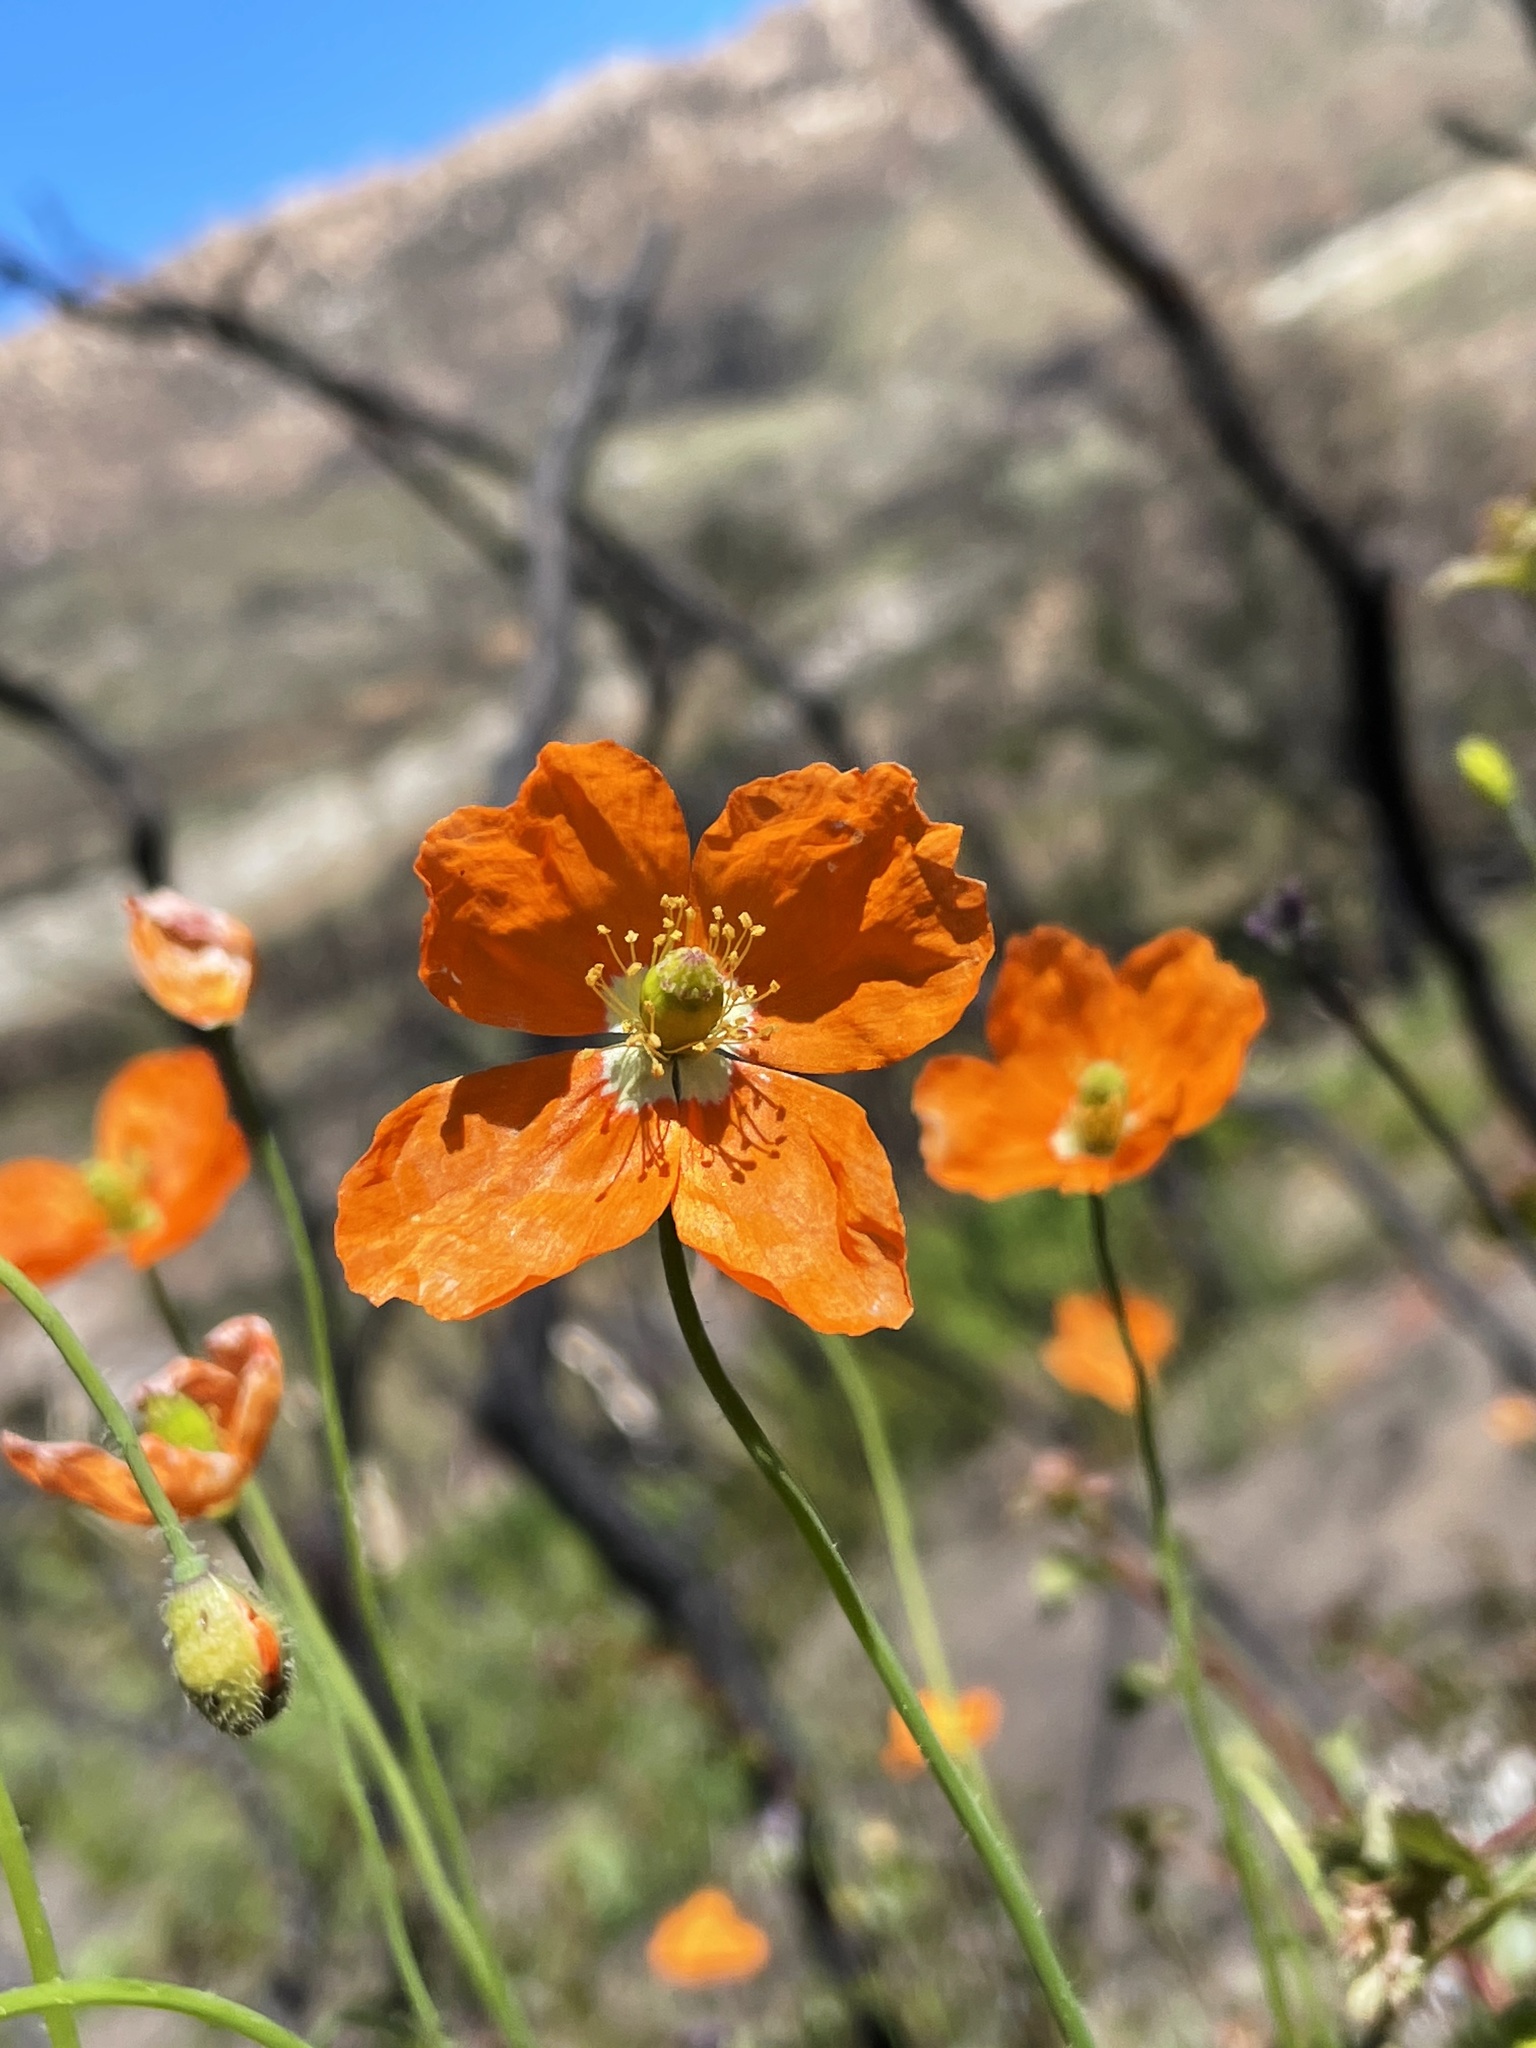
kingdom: Plantae
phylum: Tracheophyta
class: Magnoliopsida
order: Ranunculales
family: Papaveraceae
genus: Papaver
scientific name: Papaver californicum
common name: Fire poppy
